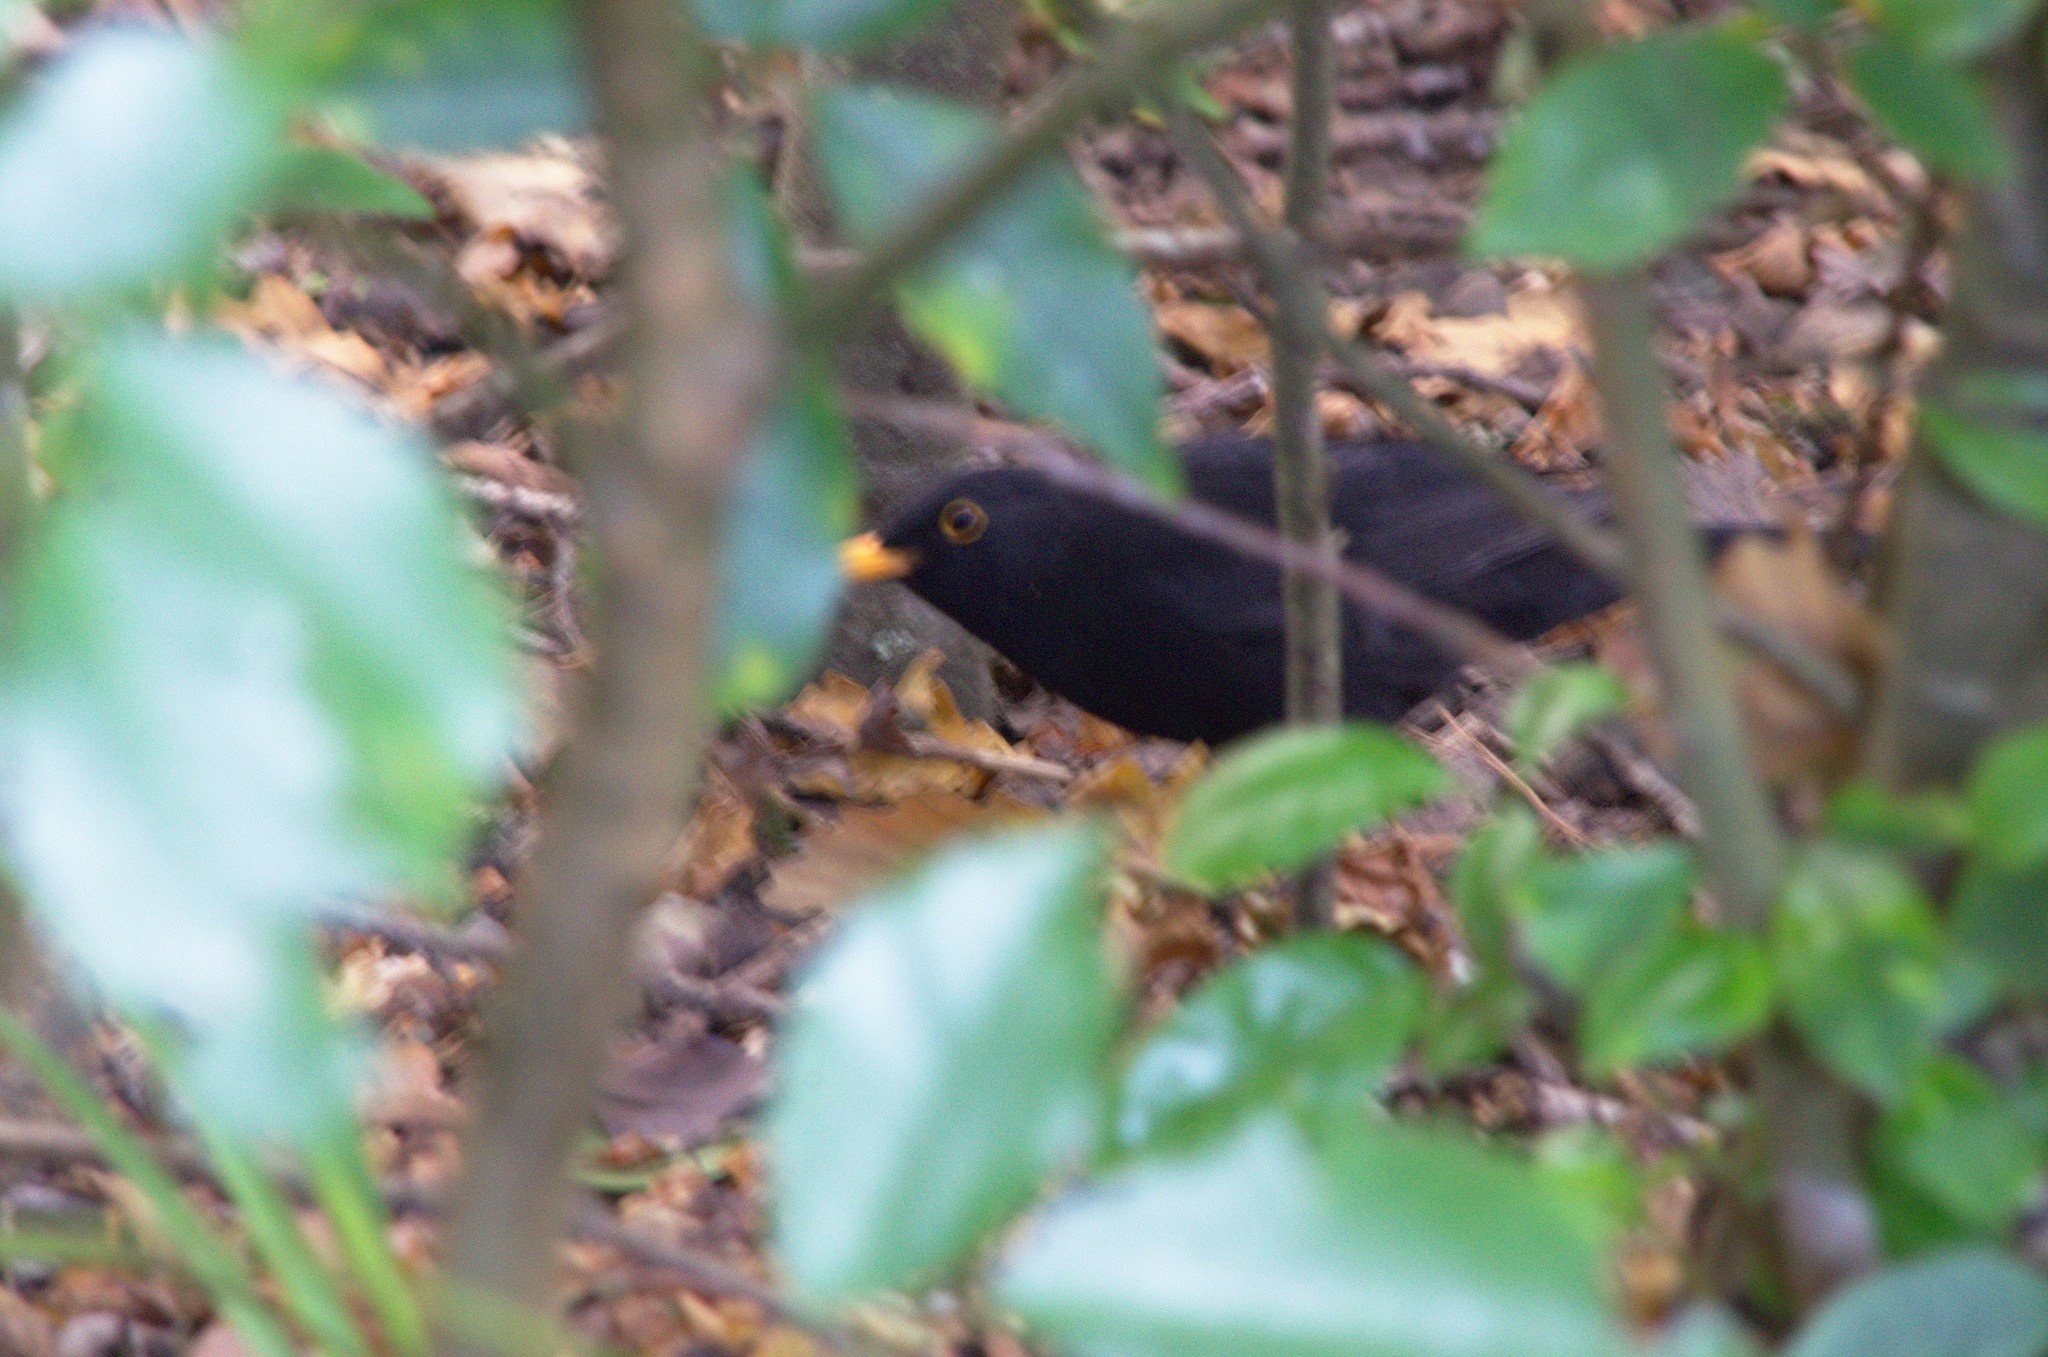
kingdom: Animalia
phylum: Chordata
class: Aves
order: Passeriformes
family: Turdidae
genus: Turdus
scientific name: Turdus merula
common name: Common blackbird
